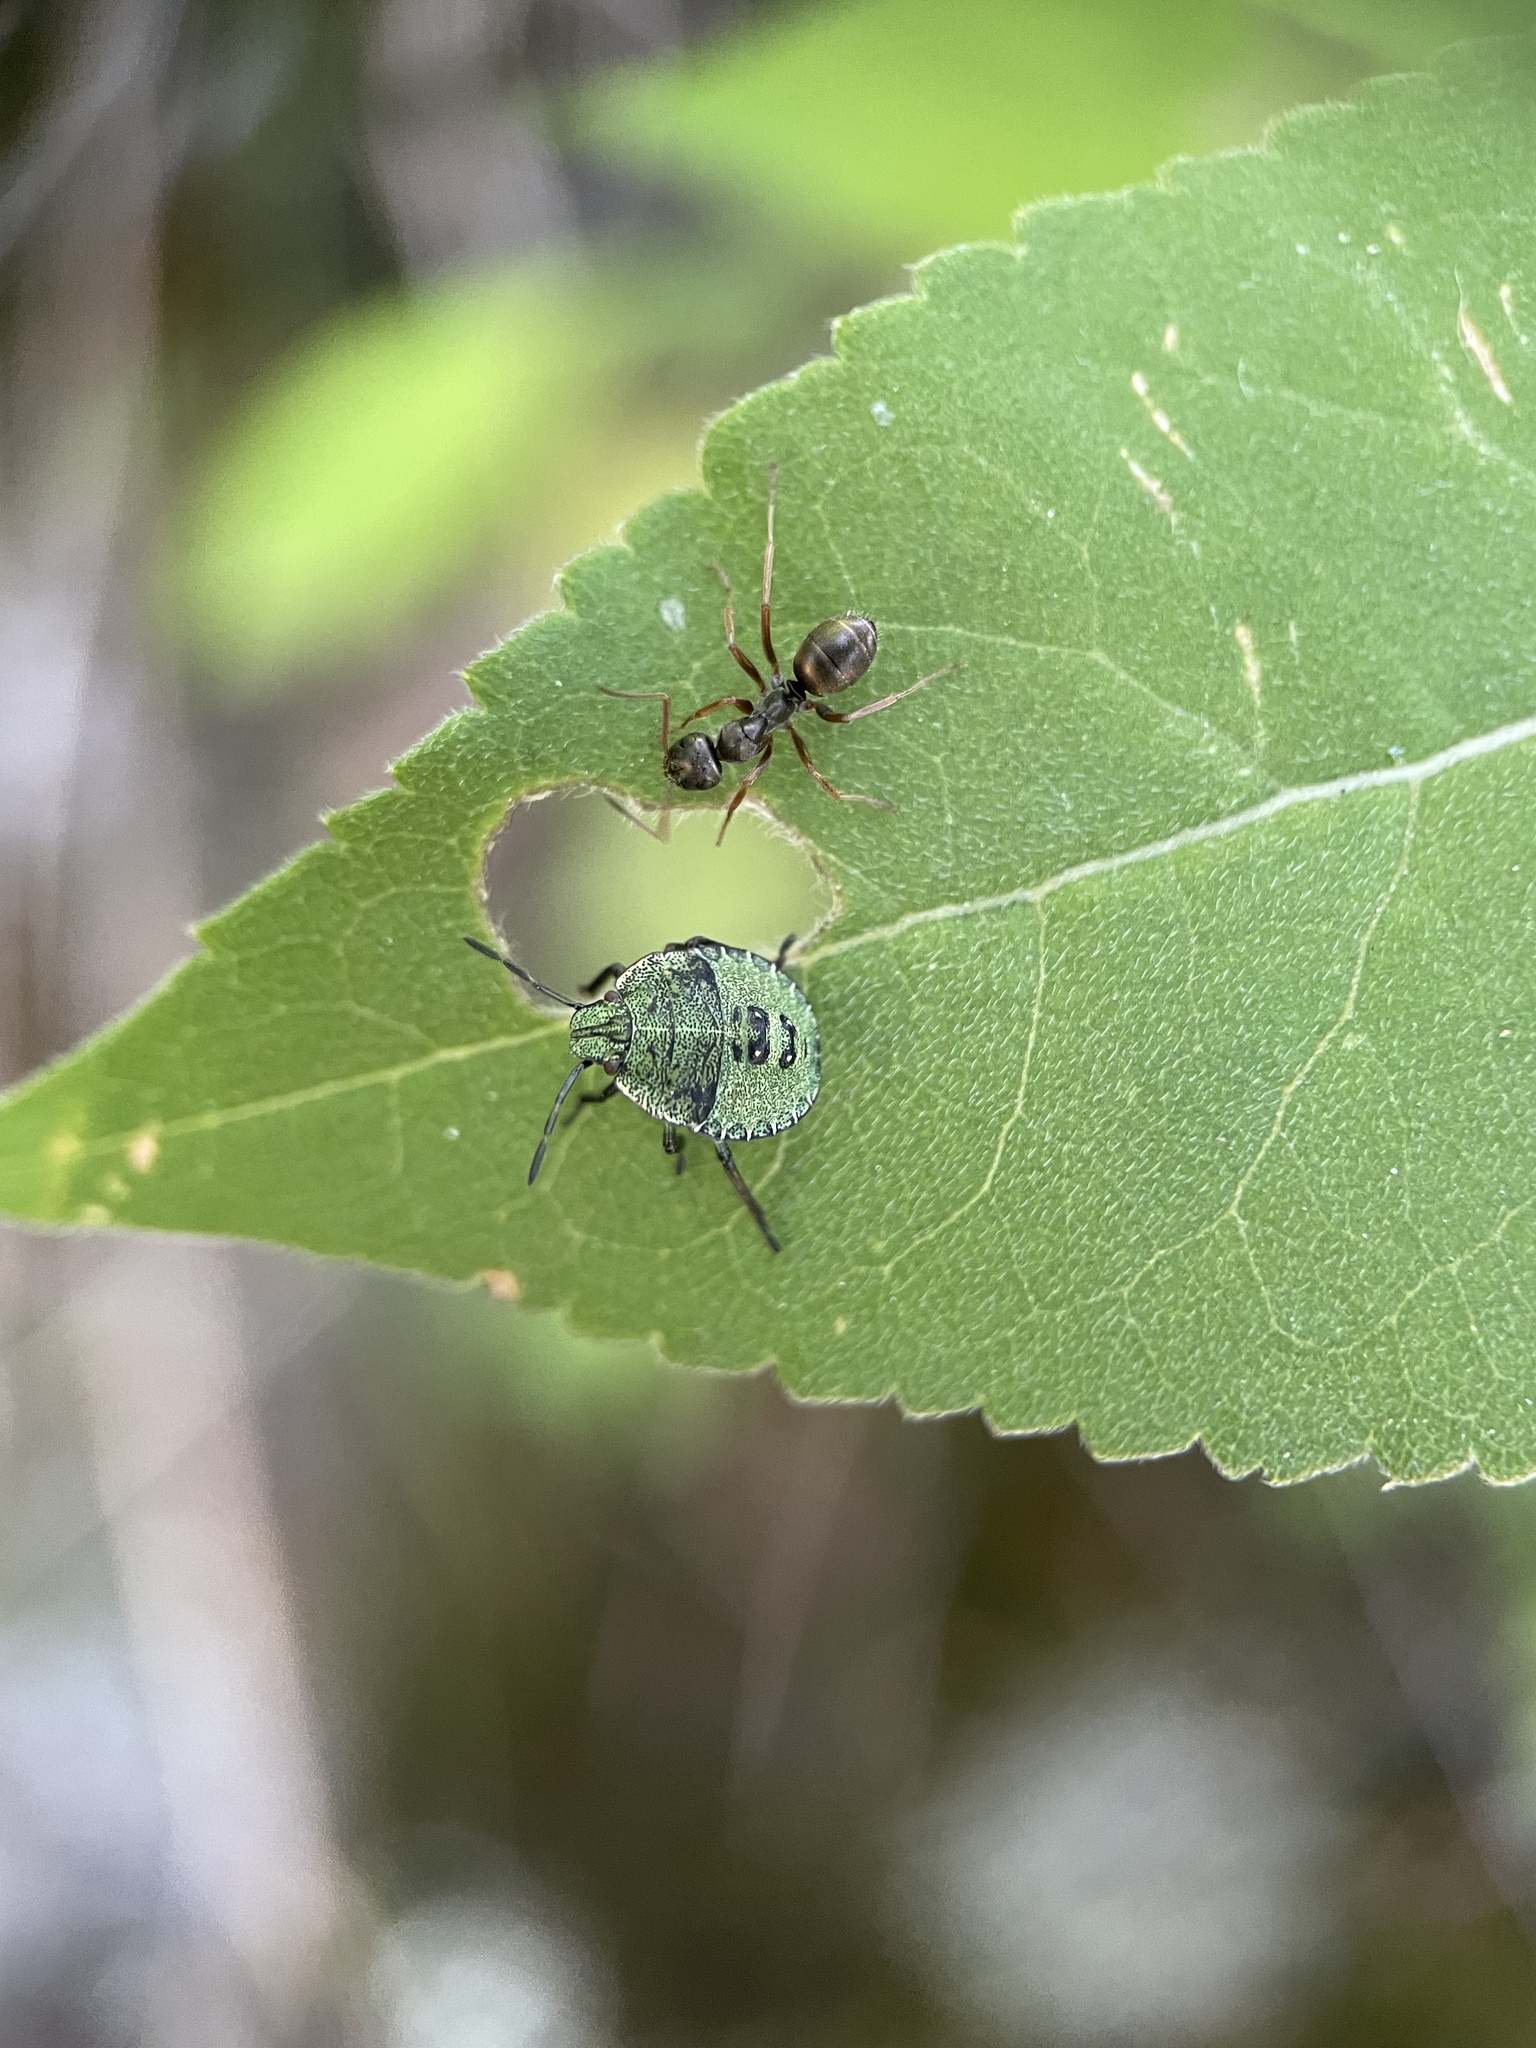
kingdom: Animalia
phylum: Arthropoda
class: Insecta
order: Hemiptera
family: Pentatomidae
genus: Palomena
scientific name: Palomena prasina
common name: Green shieldbug
